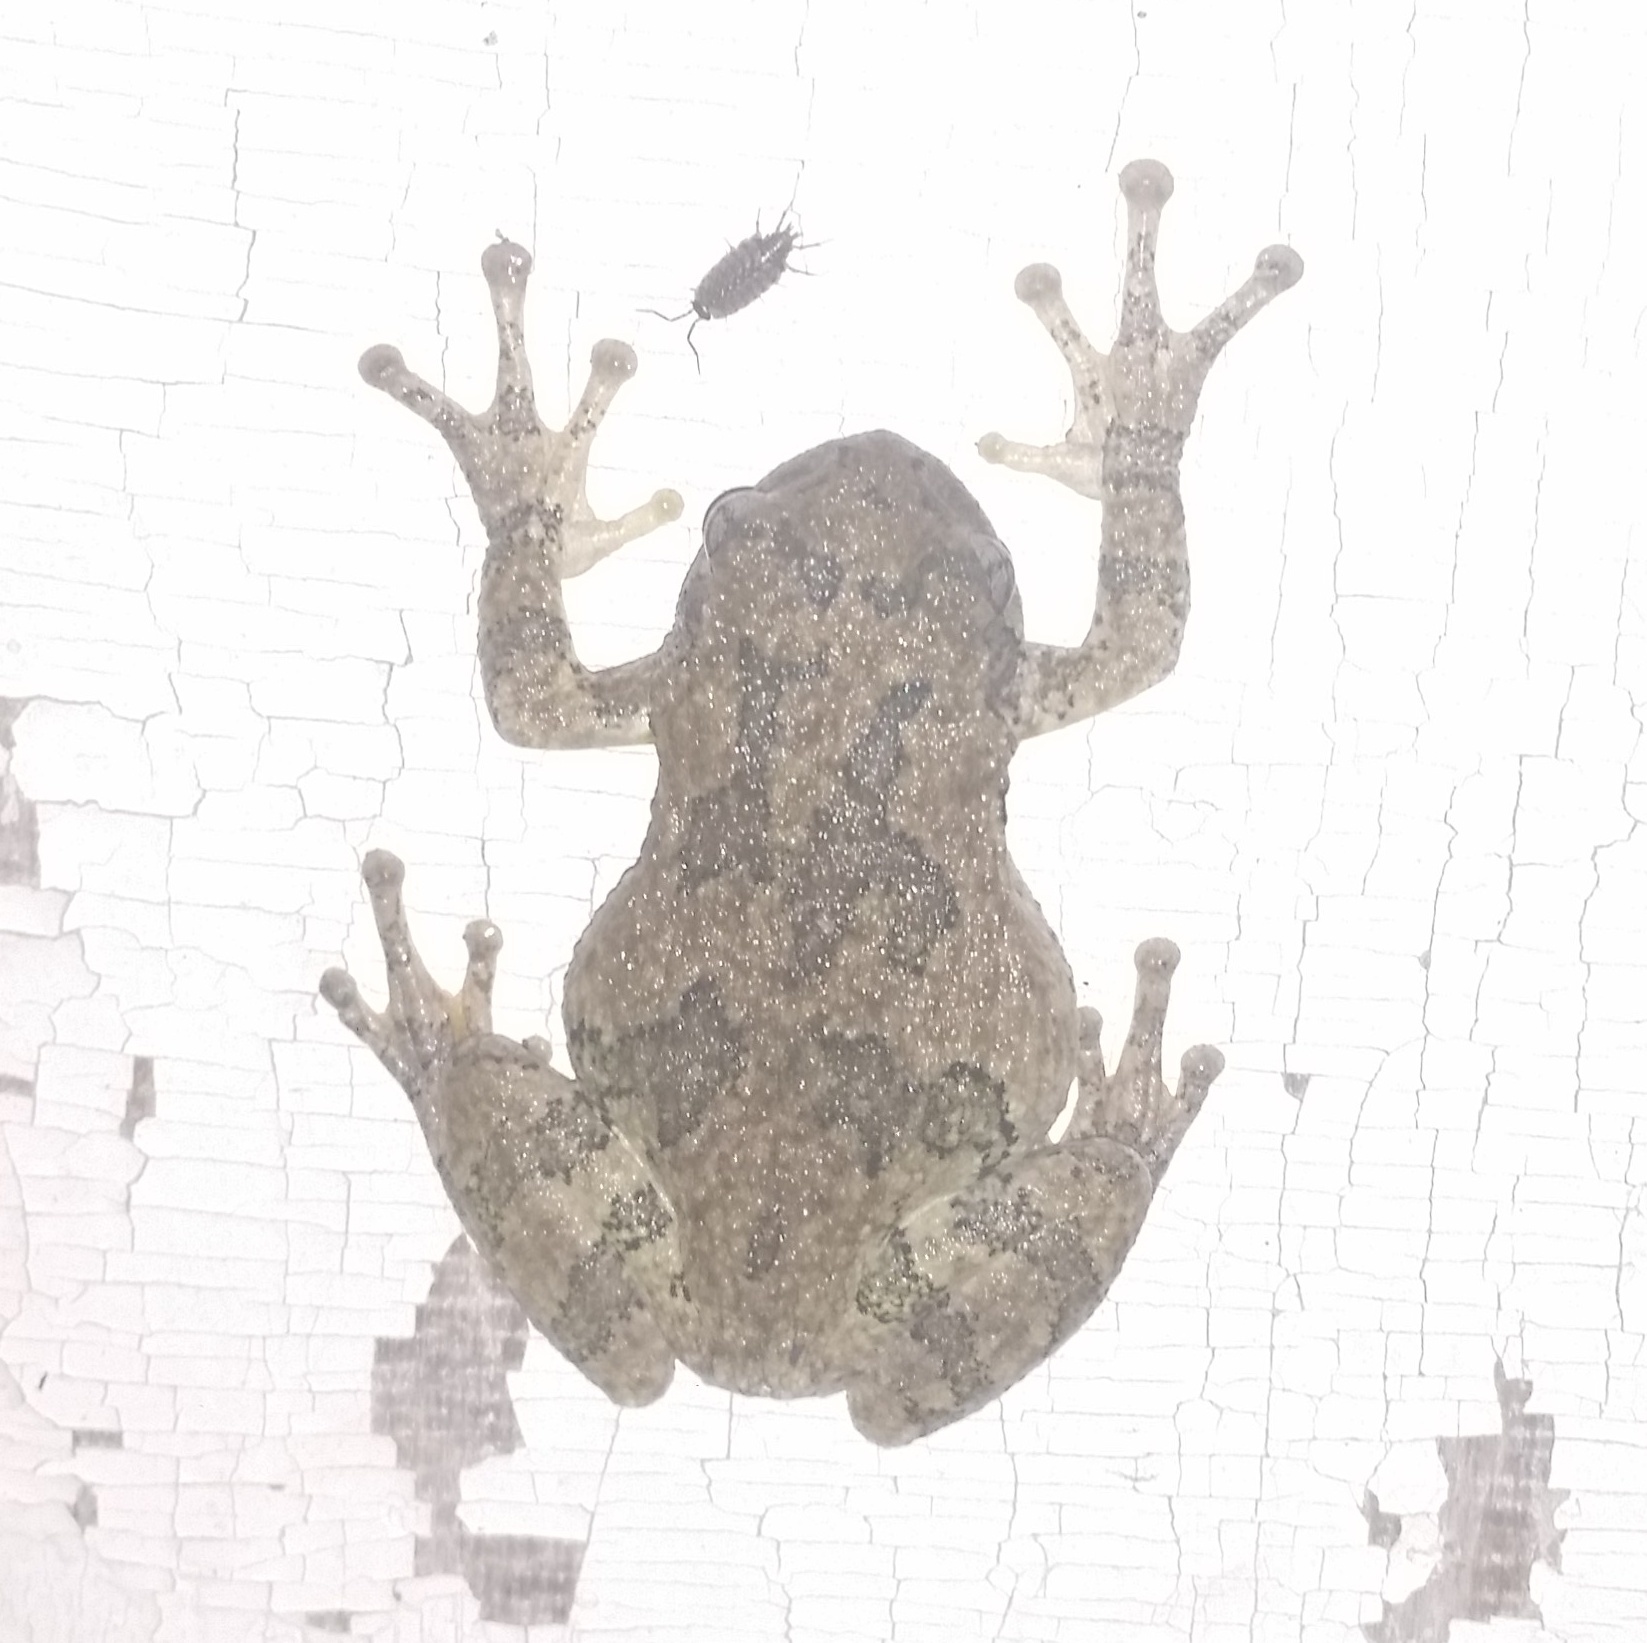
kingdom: Animalia
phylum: Chordata
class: Amphibia
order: Anura
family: Hylidae
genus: Dryophytes
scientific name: Dryophytes versicolor
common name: Gray treefrog
